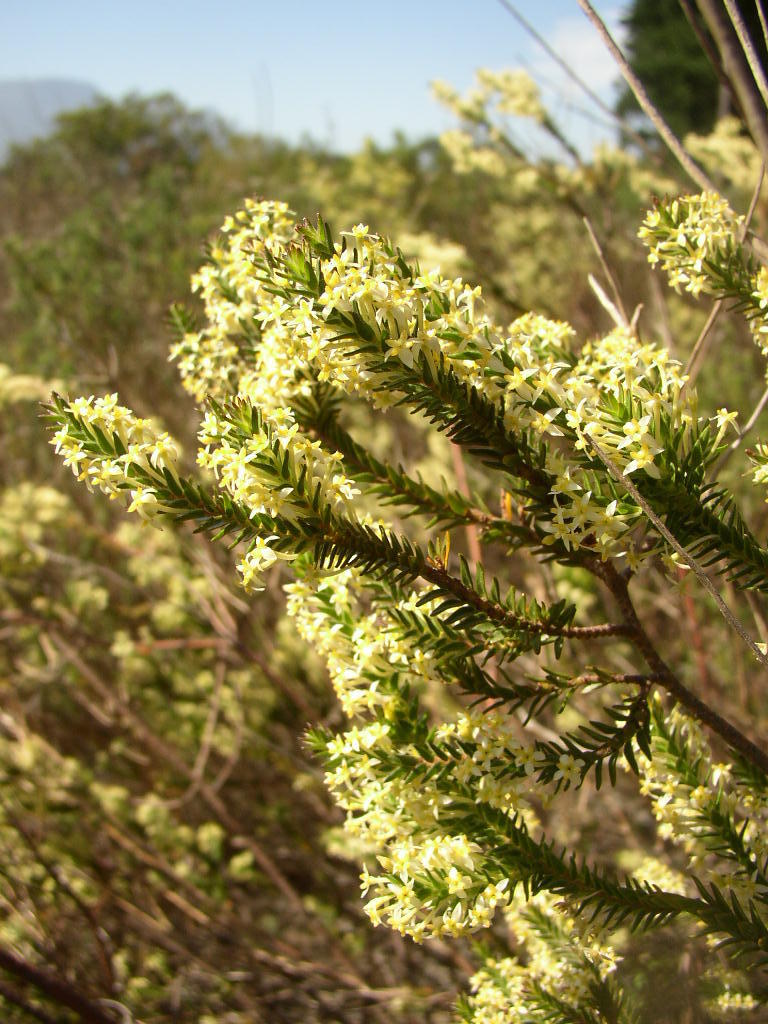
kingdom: Plantae
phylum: Tracheophyta
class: Magnoliopsida
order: Malvales
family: Thymelaeaceae
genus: Struthiola
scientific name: Struthiola striata
